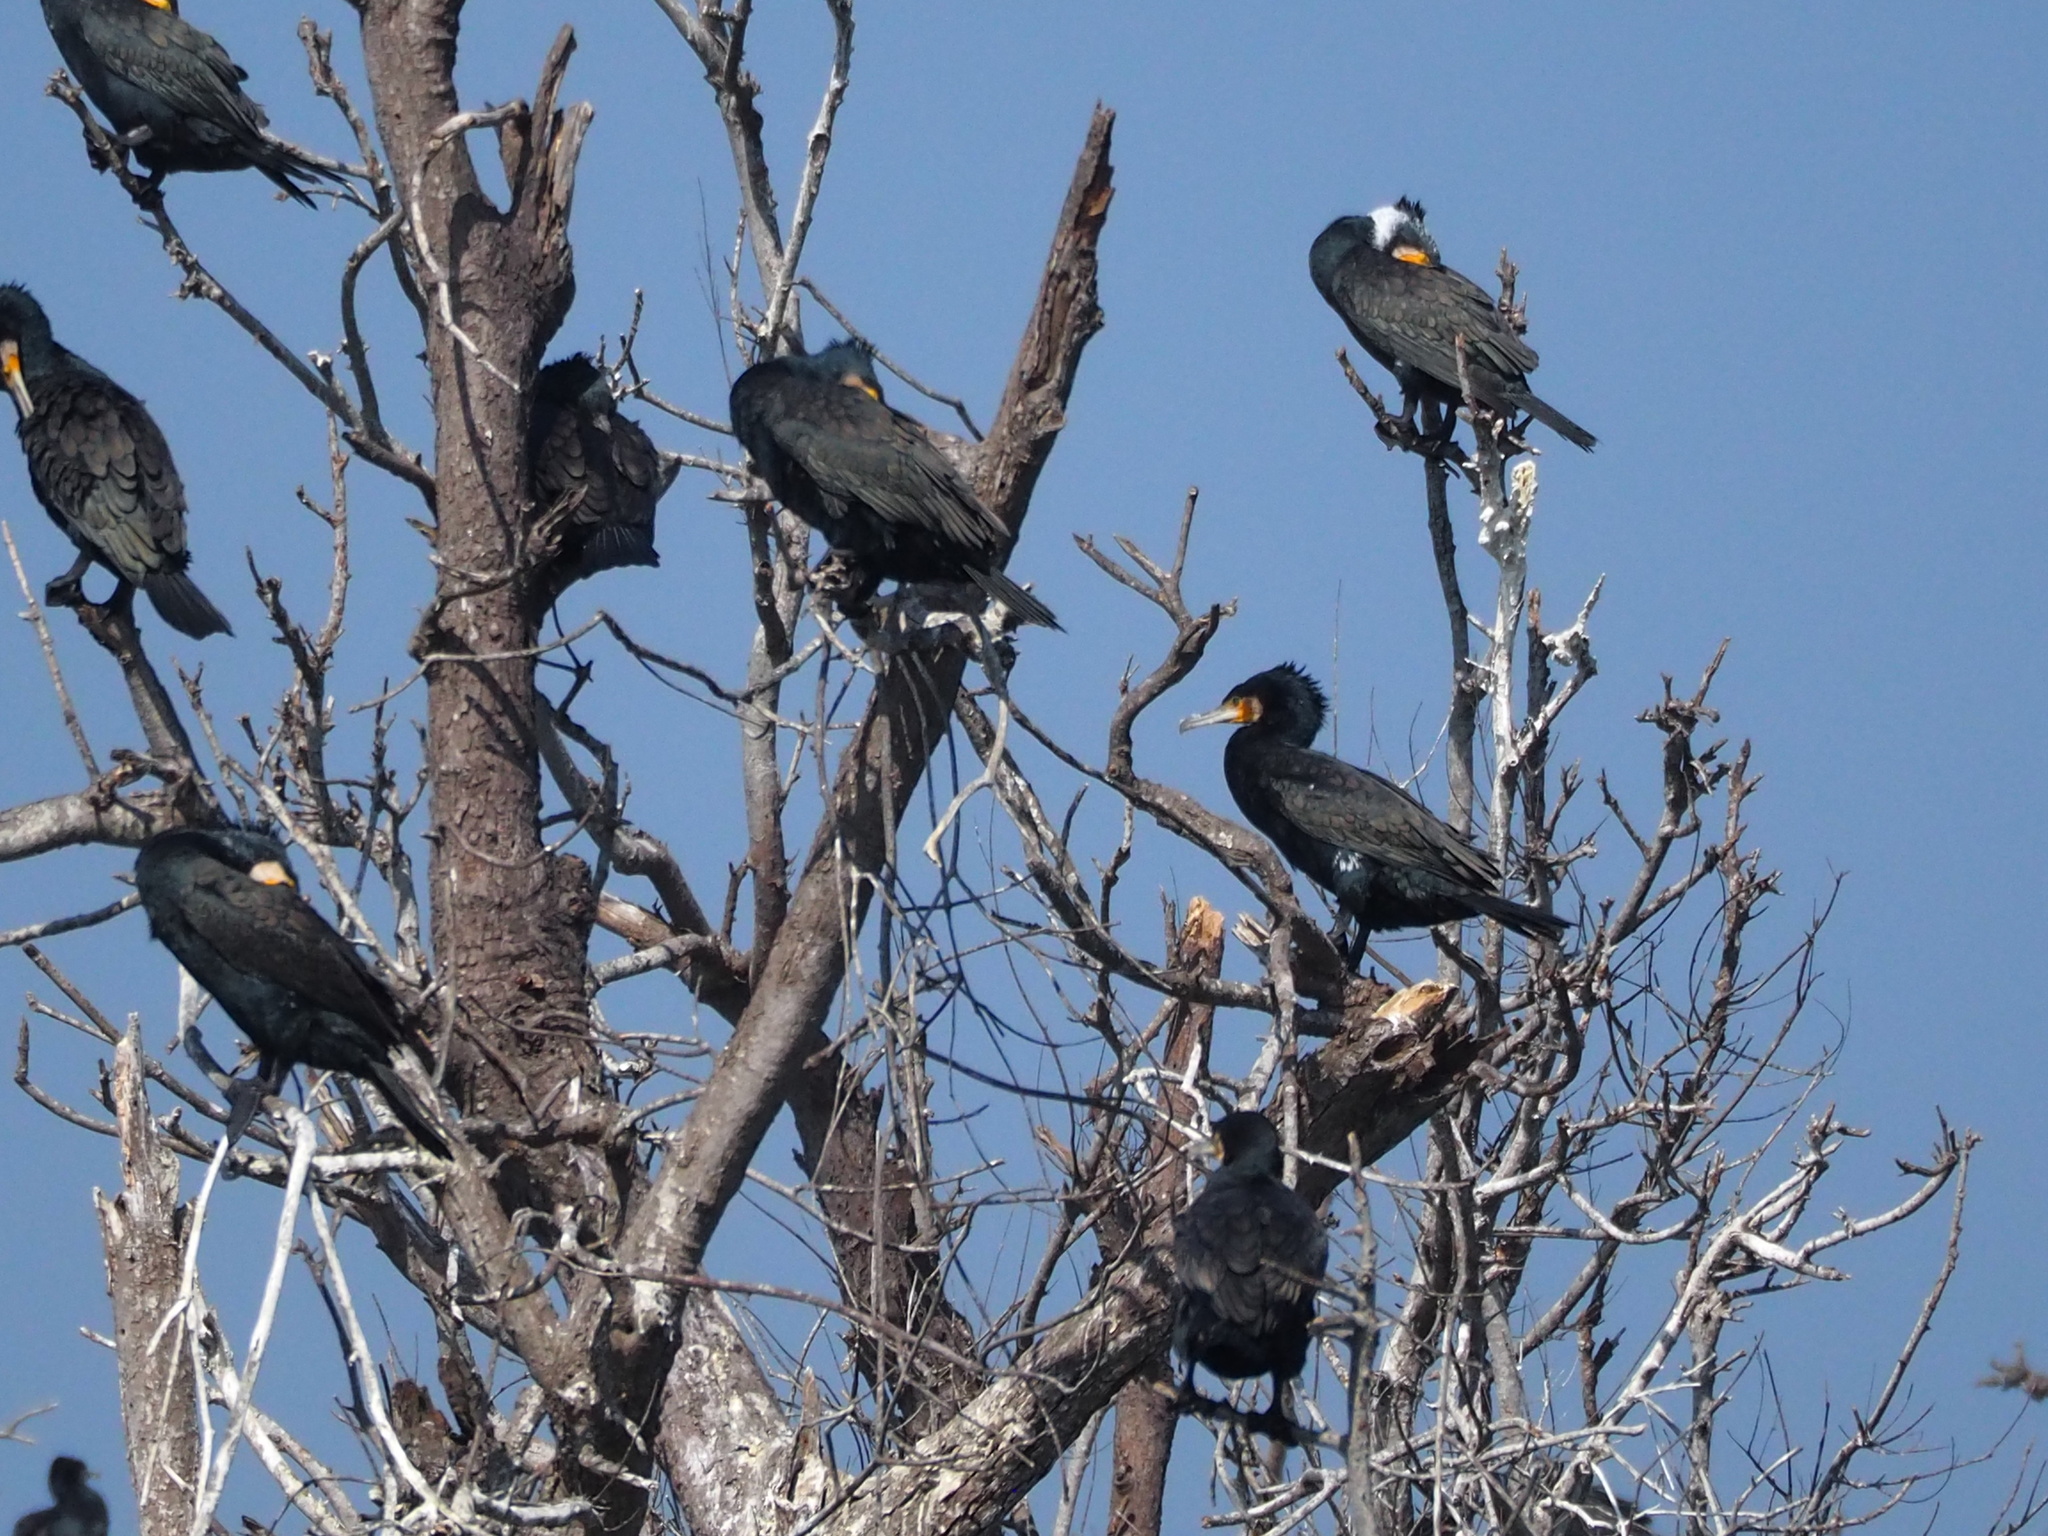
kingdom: Animalia
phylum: Chordata
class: Aves
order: Suliformes
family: Phalacrocoracidae
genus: Phalacrocorax
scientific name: Phalacrocorax carbo
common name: Great cormorant
